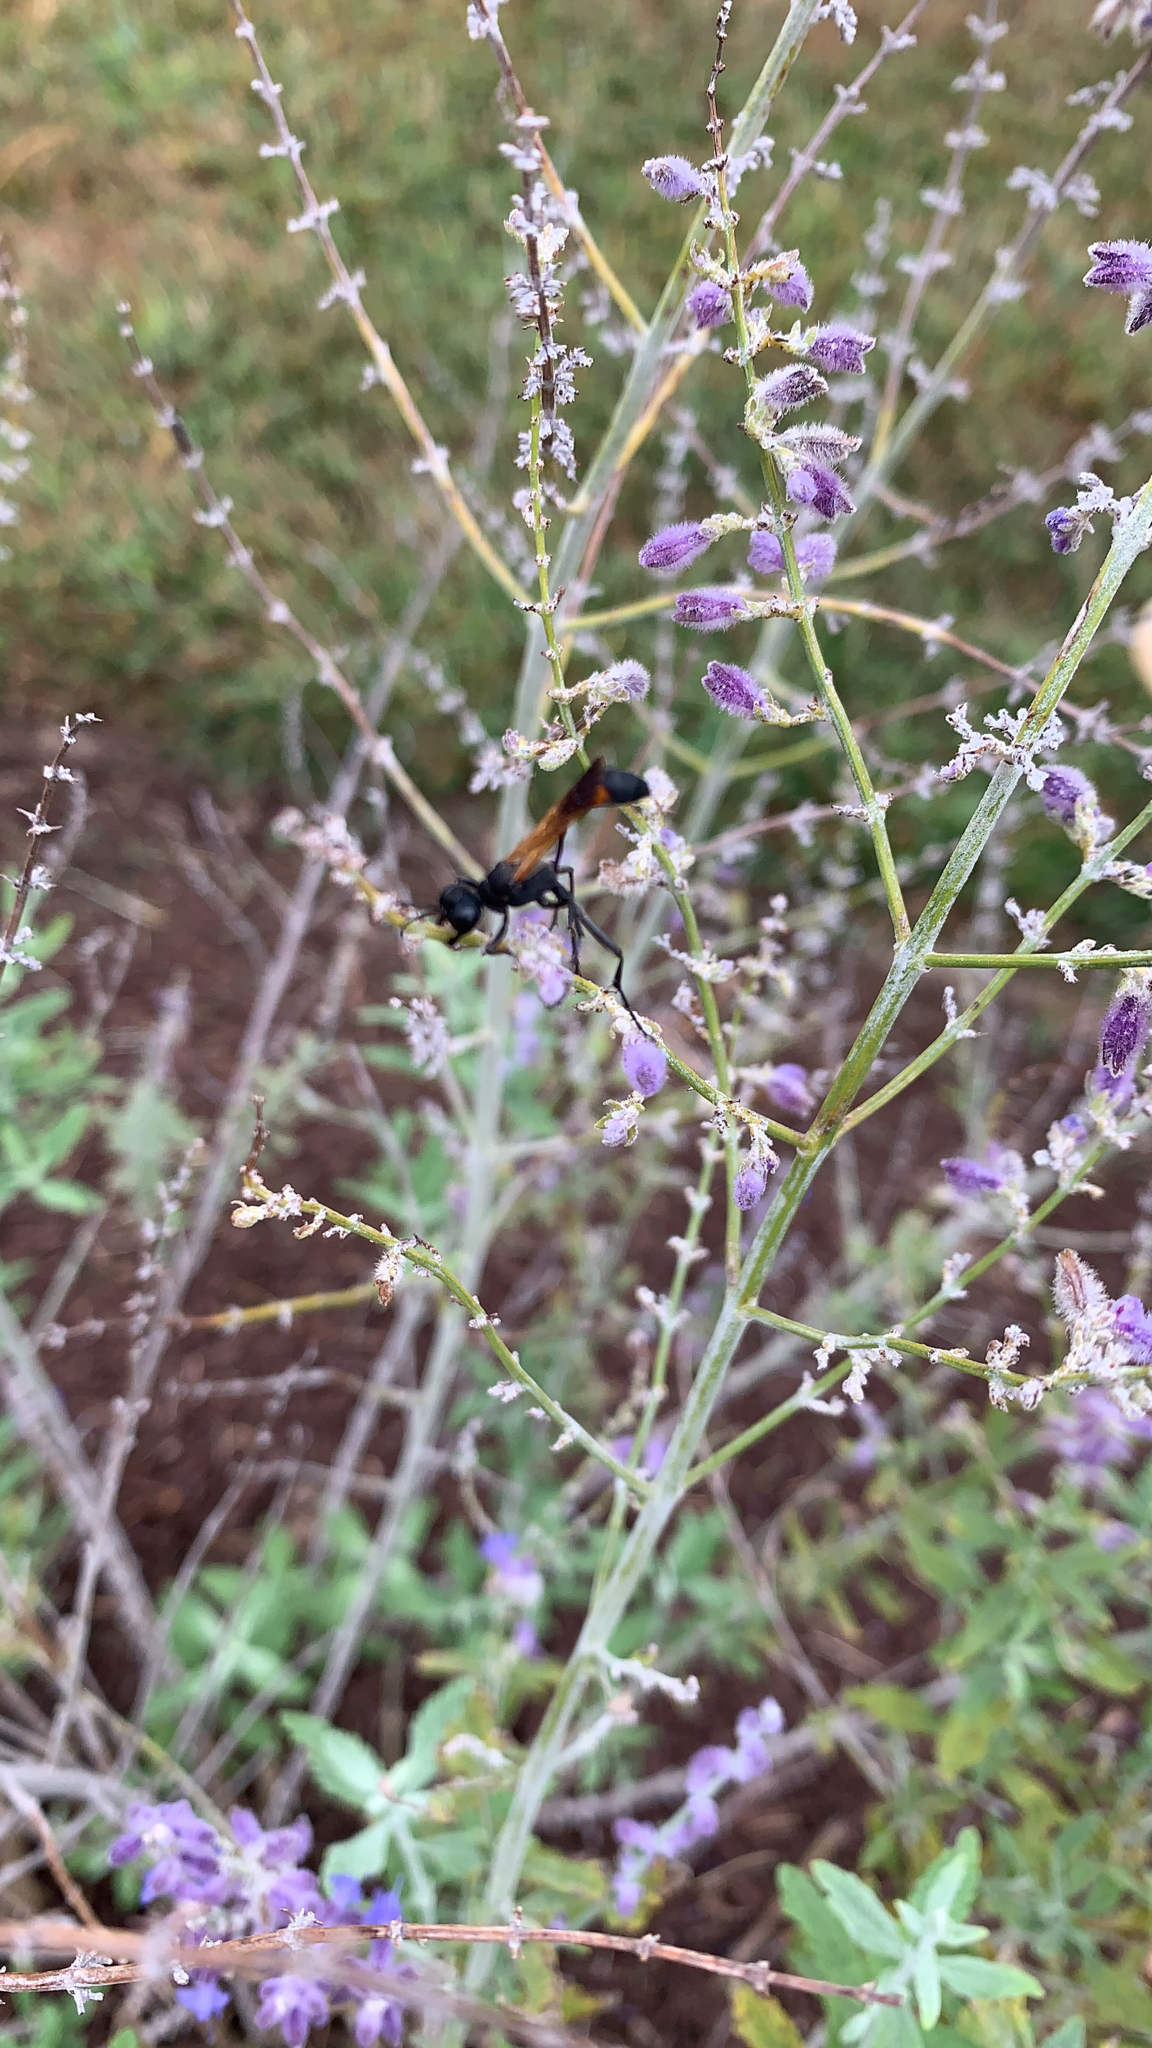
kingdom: Animalia
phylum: Arthropoda
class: Insecta
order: Hymenoptera
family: Sphecidae
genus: Ammophila
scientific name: Ammophila pictipennis
